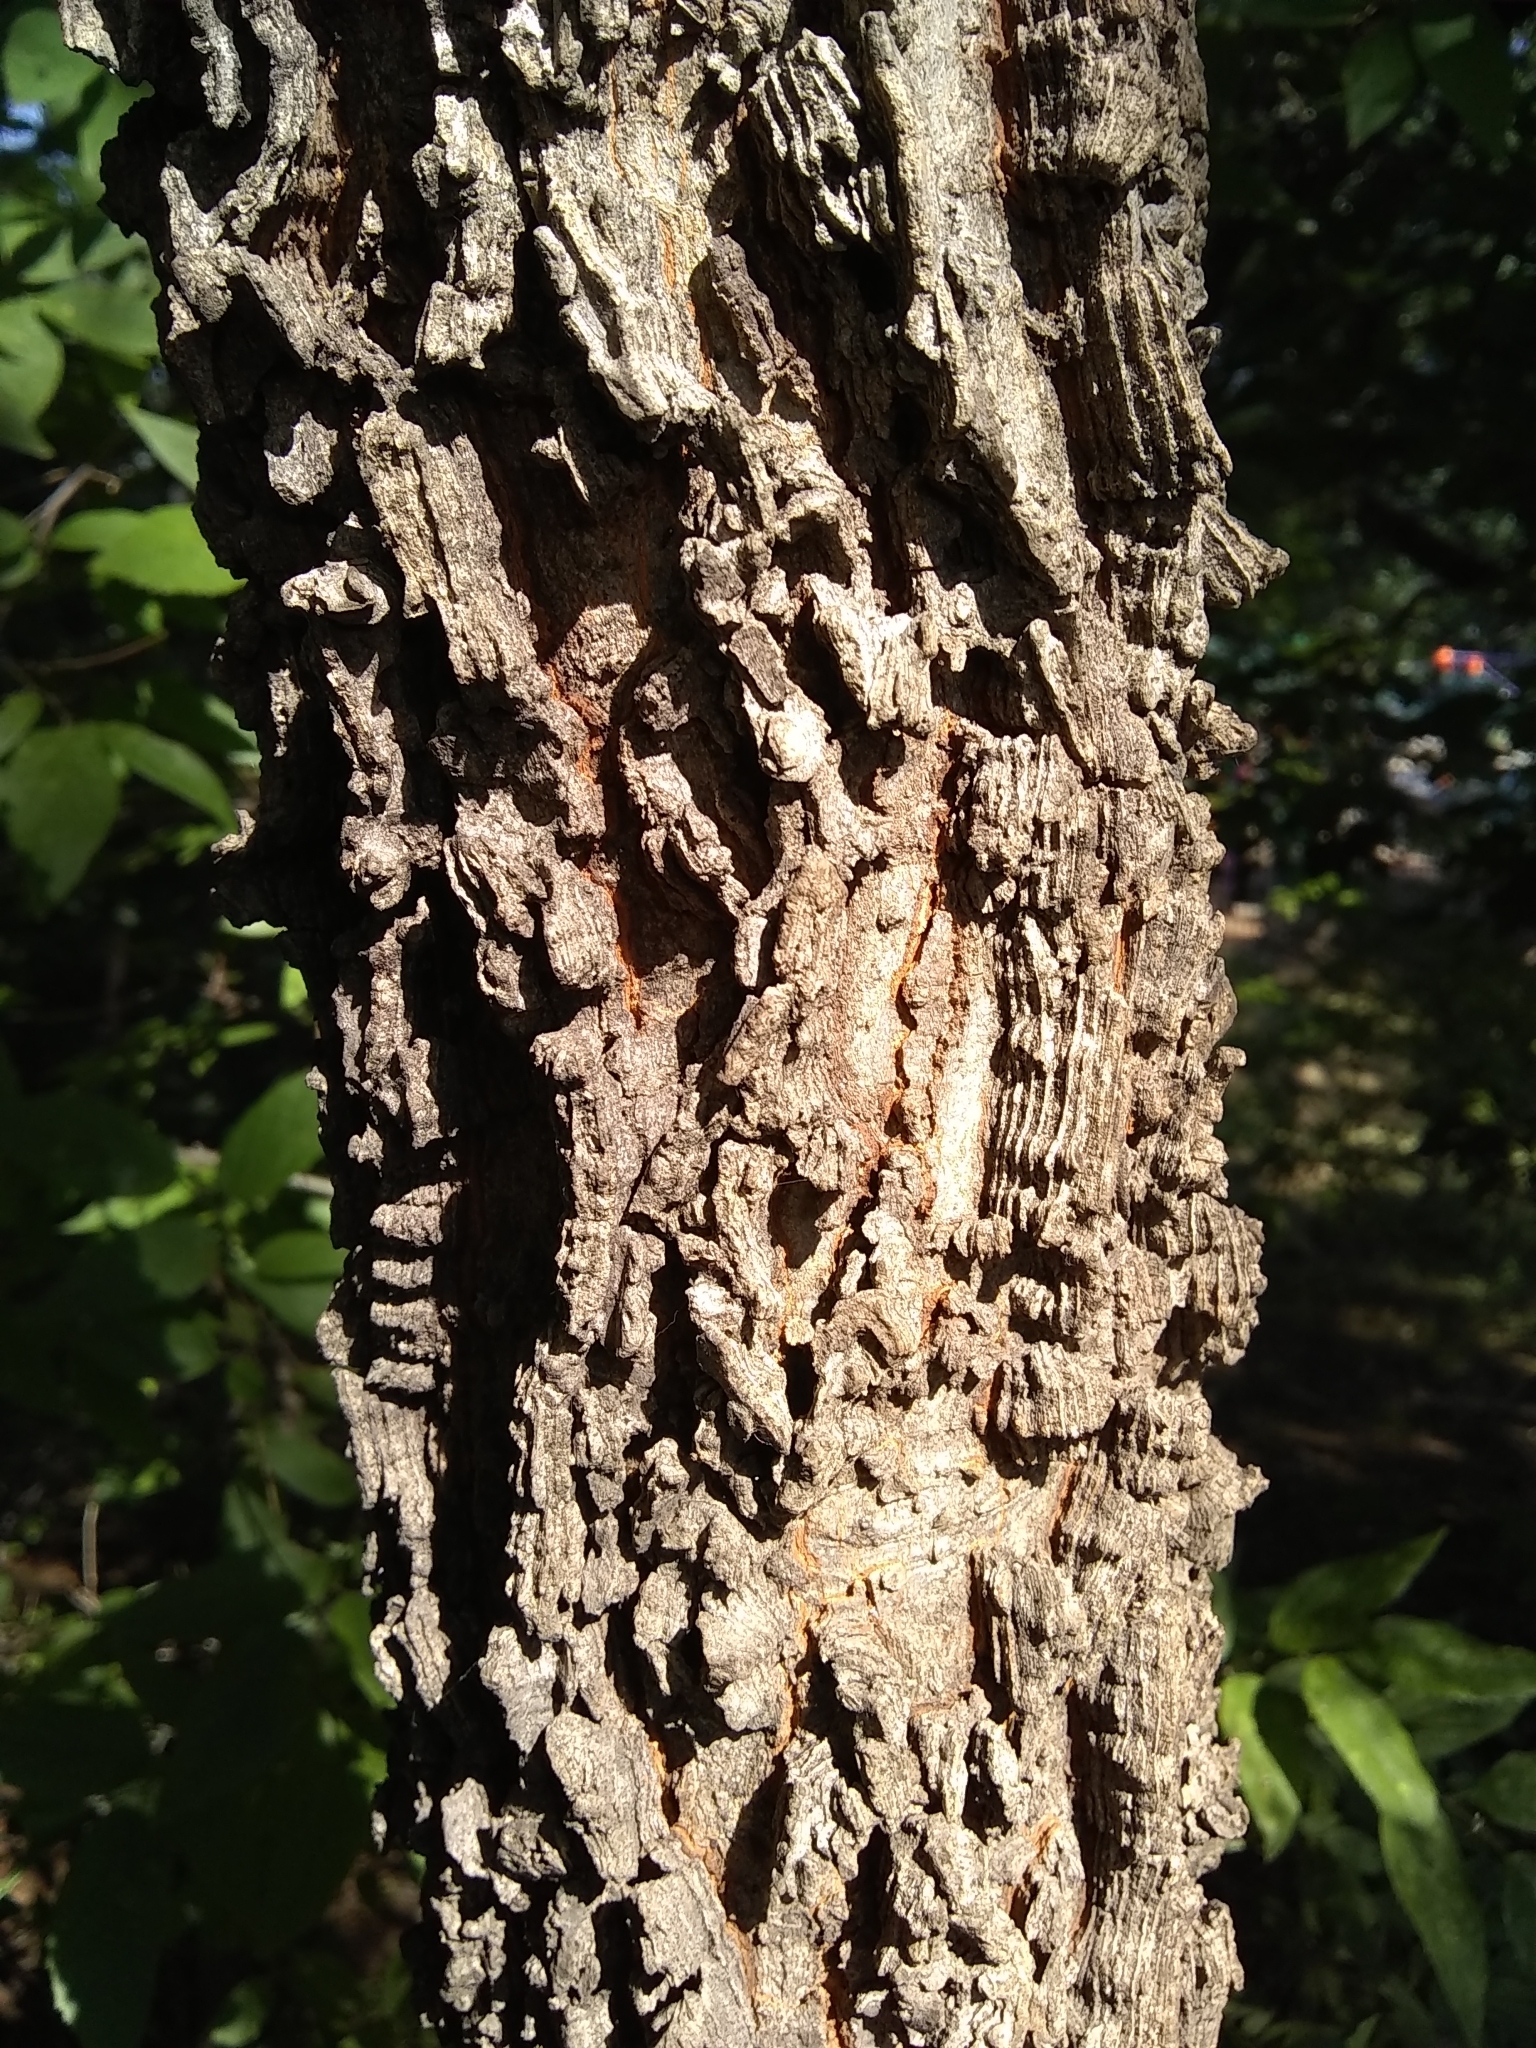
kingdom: Plantae
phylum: Tracheophyta
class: Magnoliopsida
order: Rosales
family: Cannabaceae
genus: Celtis
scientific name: Celtis laevigata
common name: Sugarberry
